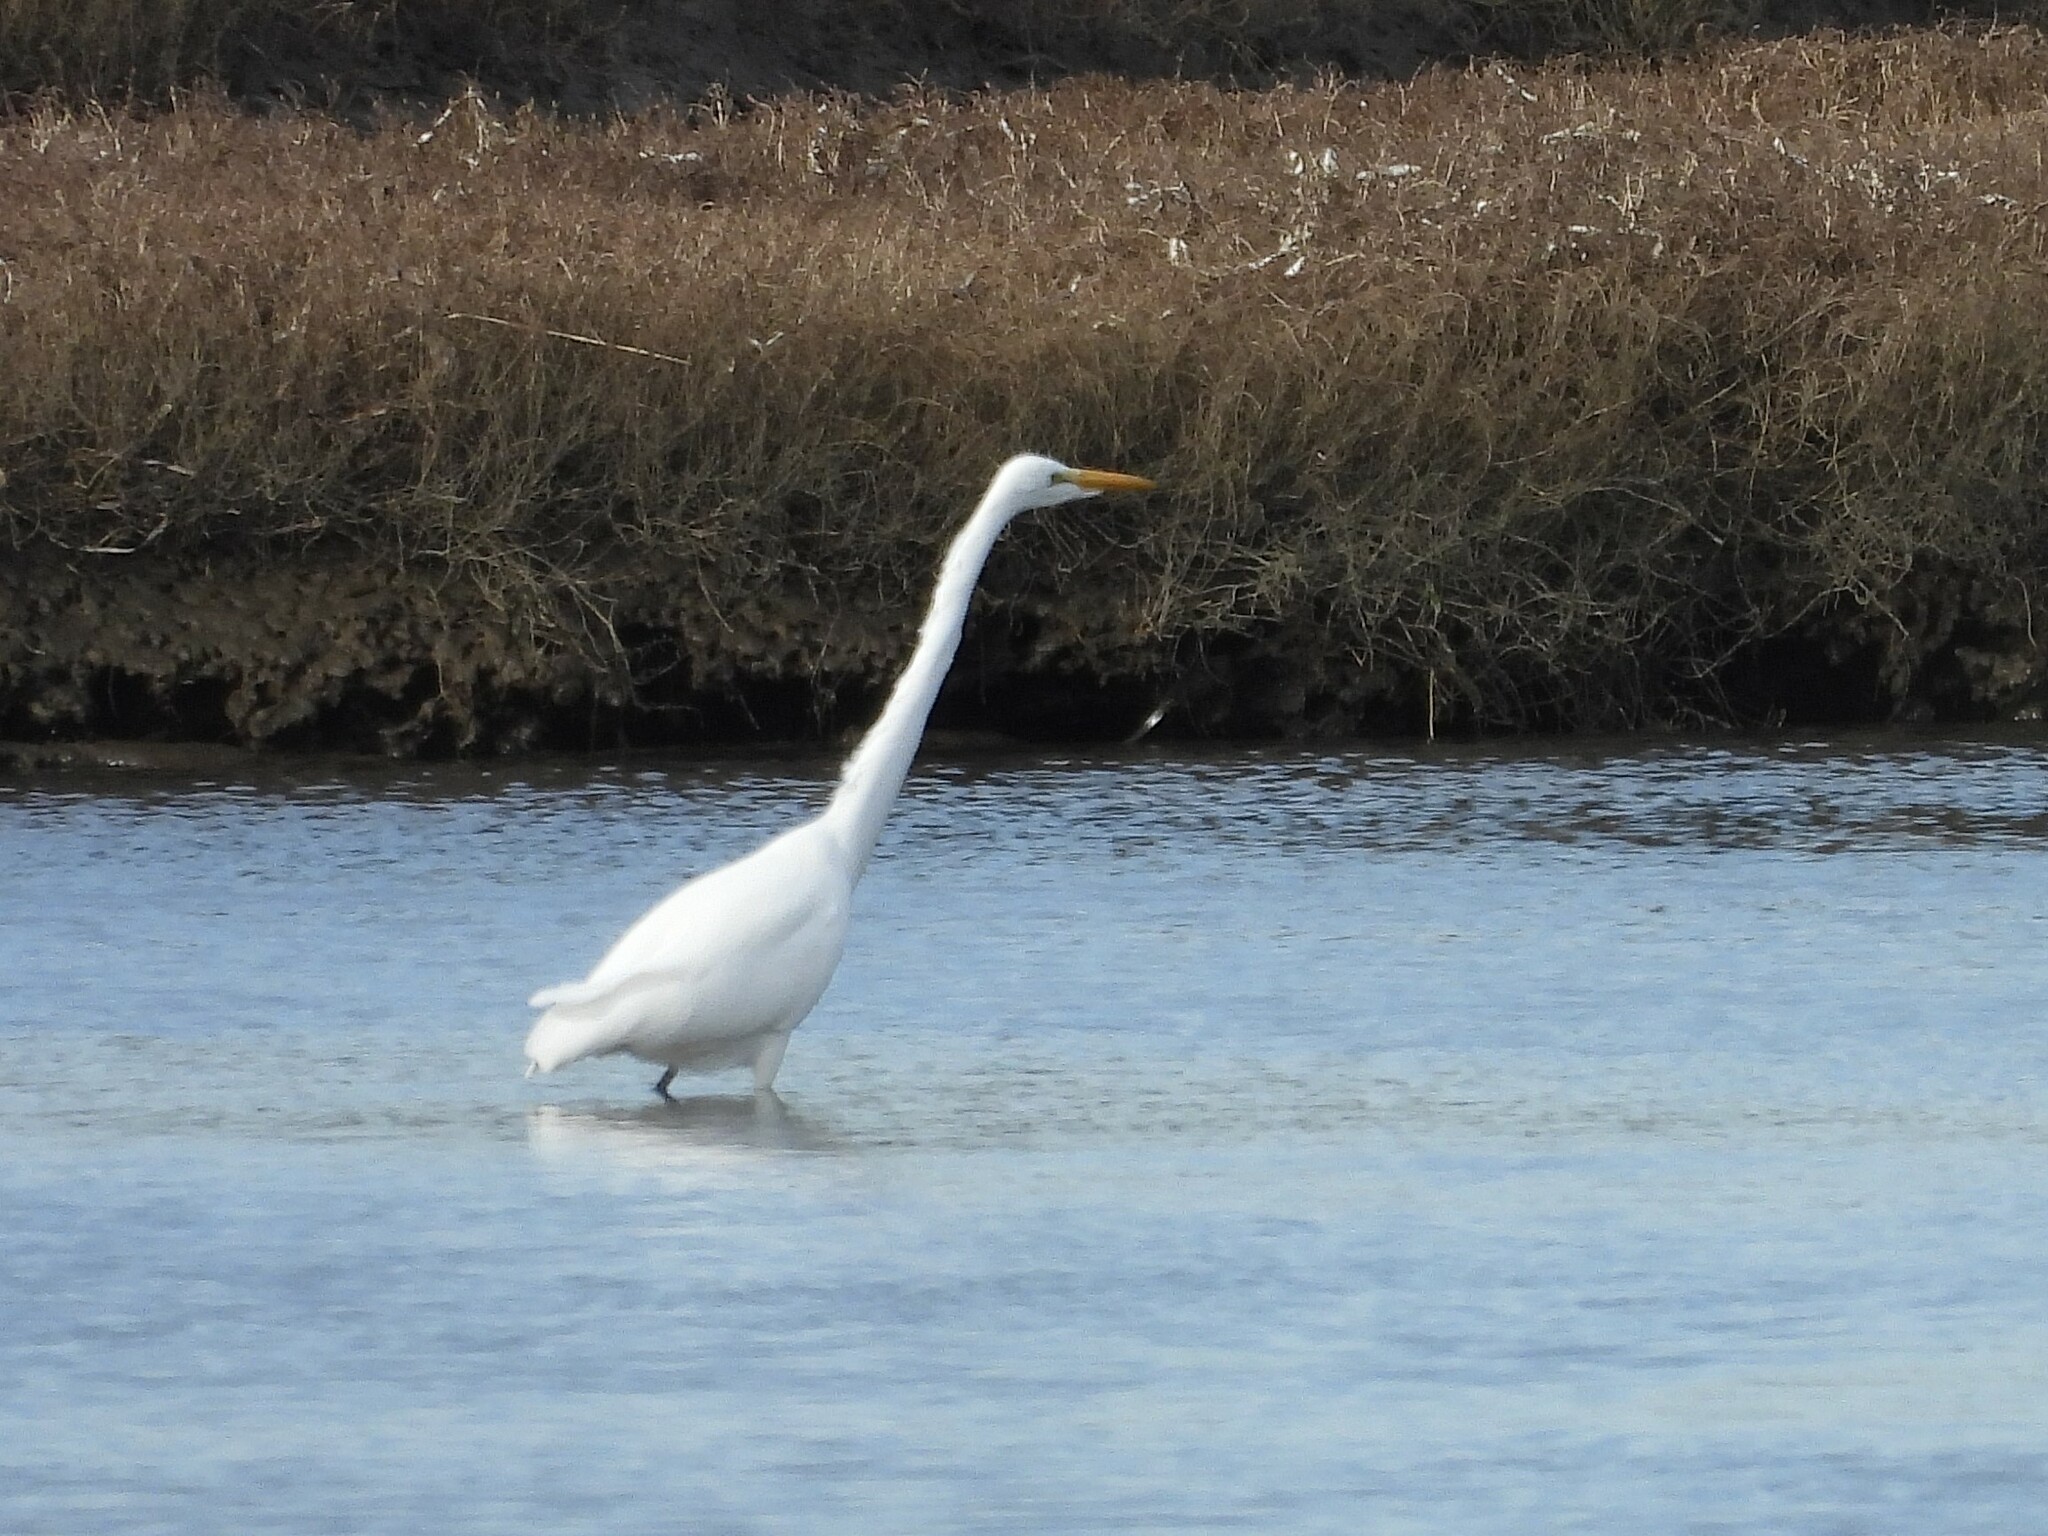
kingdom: Animalia
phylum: Chordata
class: Aves
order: Pelecaniformes
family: Ardeidae
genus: Ardea
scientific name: Ardea alba
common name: Great egret
